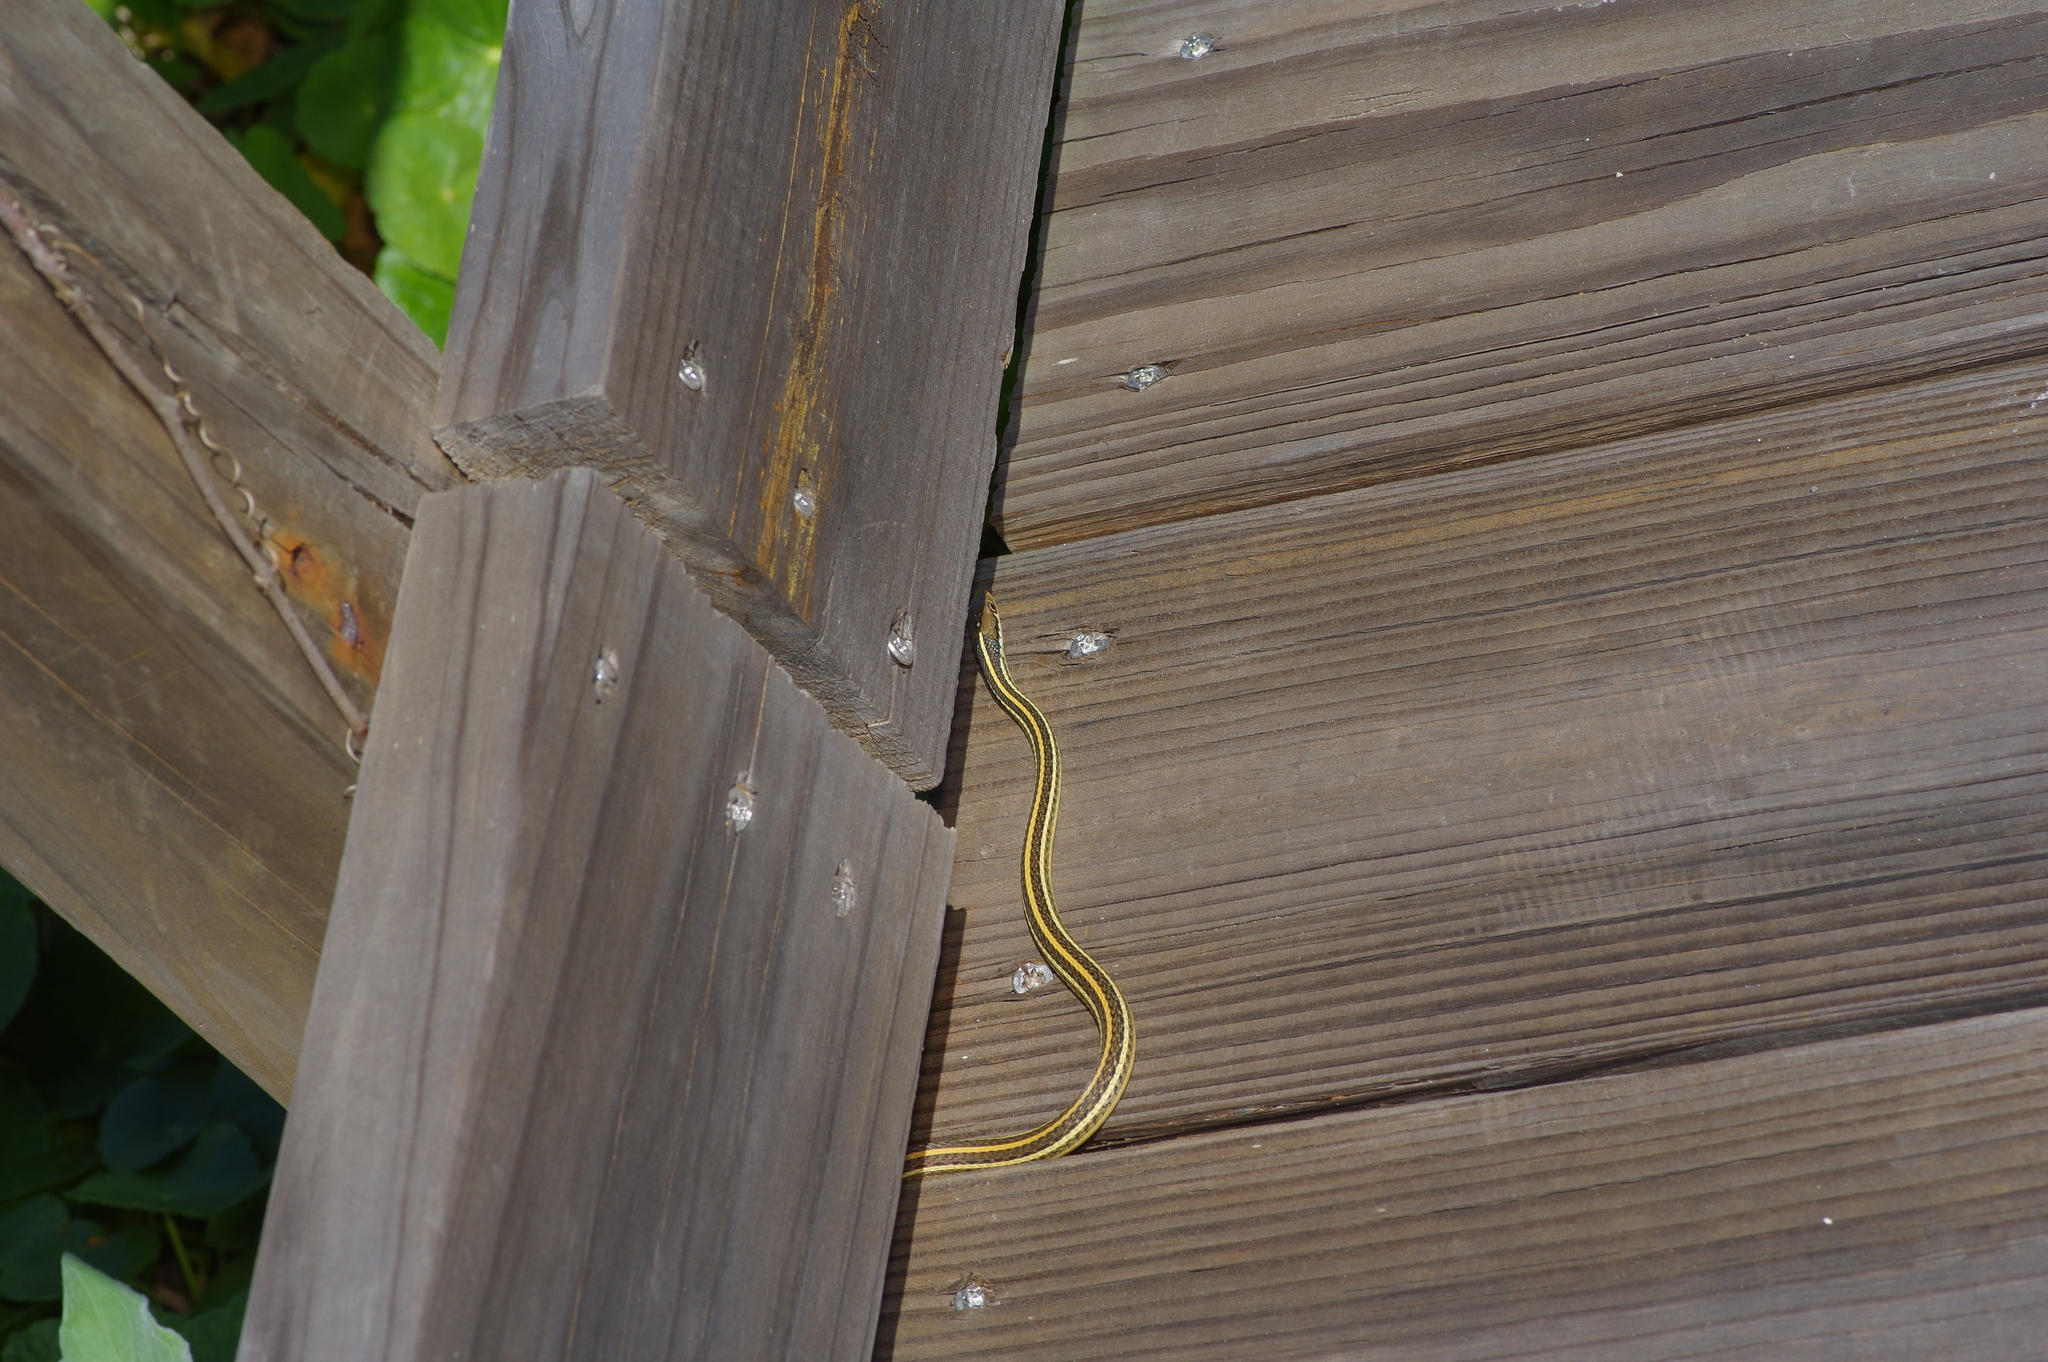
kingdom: Animalia
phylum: Chordata
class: Squamata
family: Colubridae
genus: Thamnophis
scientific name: Thamnophis proximus
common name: Western ribbon snake
